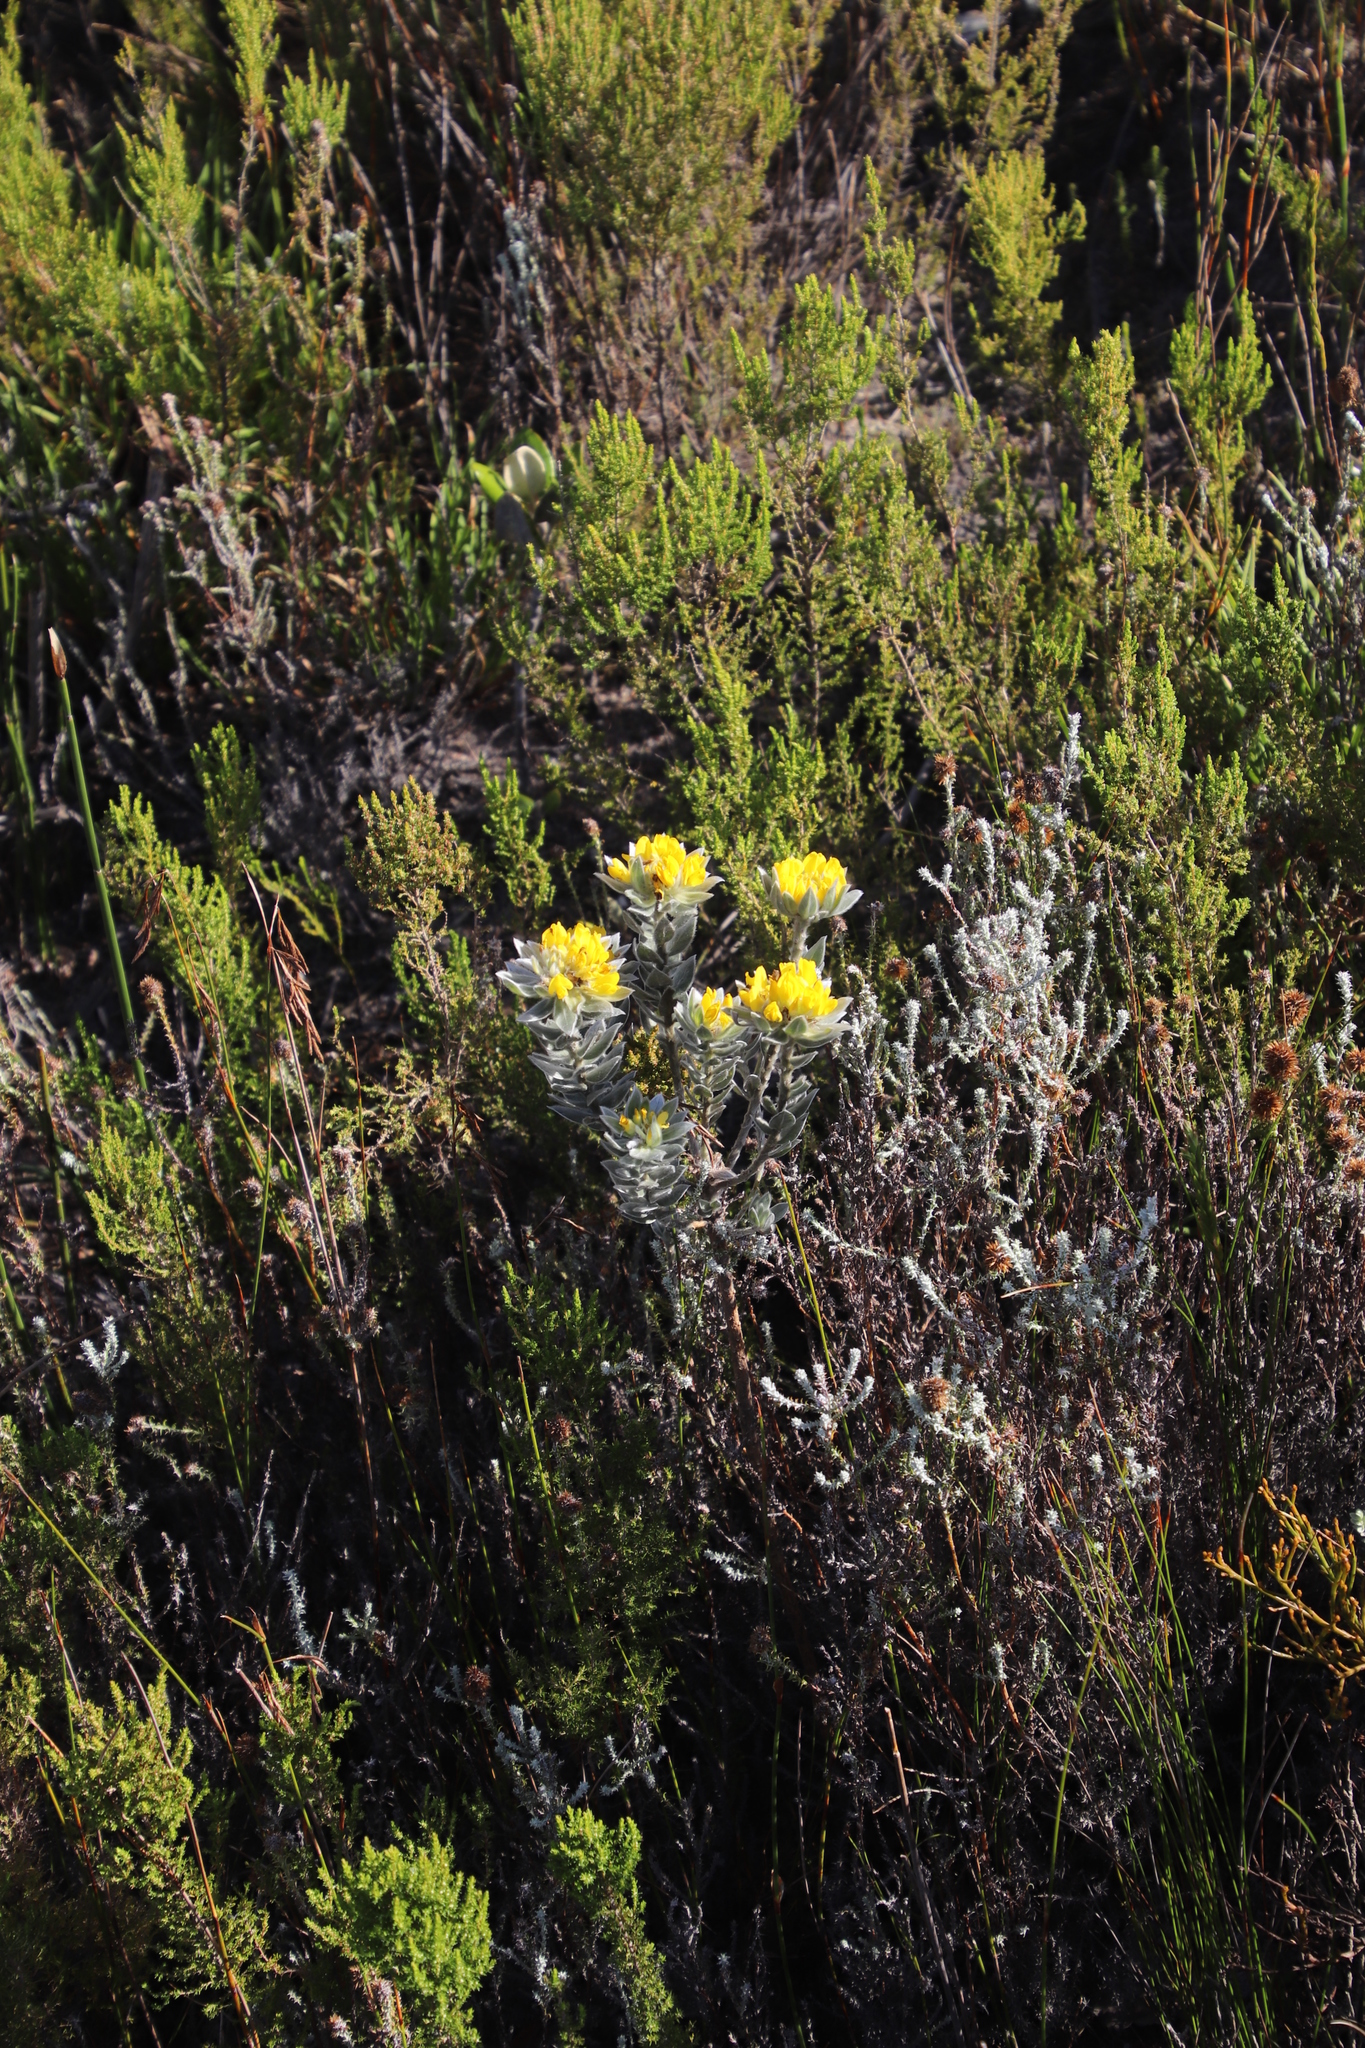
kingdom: Plantae
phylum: Tracheophyta
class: Magnoliopsida
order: Fabales
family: Fabaceae
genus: Xiphotheca
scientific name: Xiphotheca fruticosa
